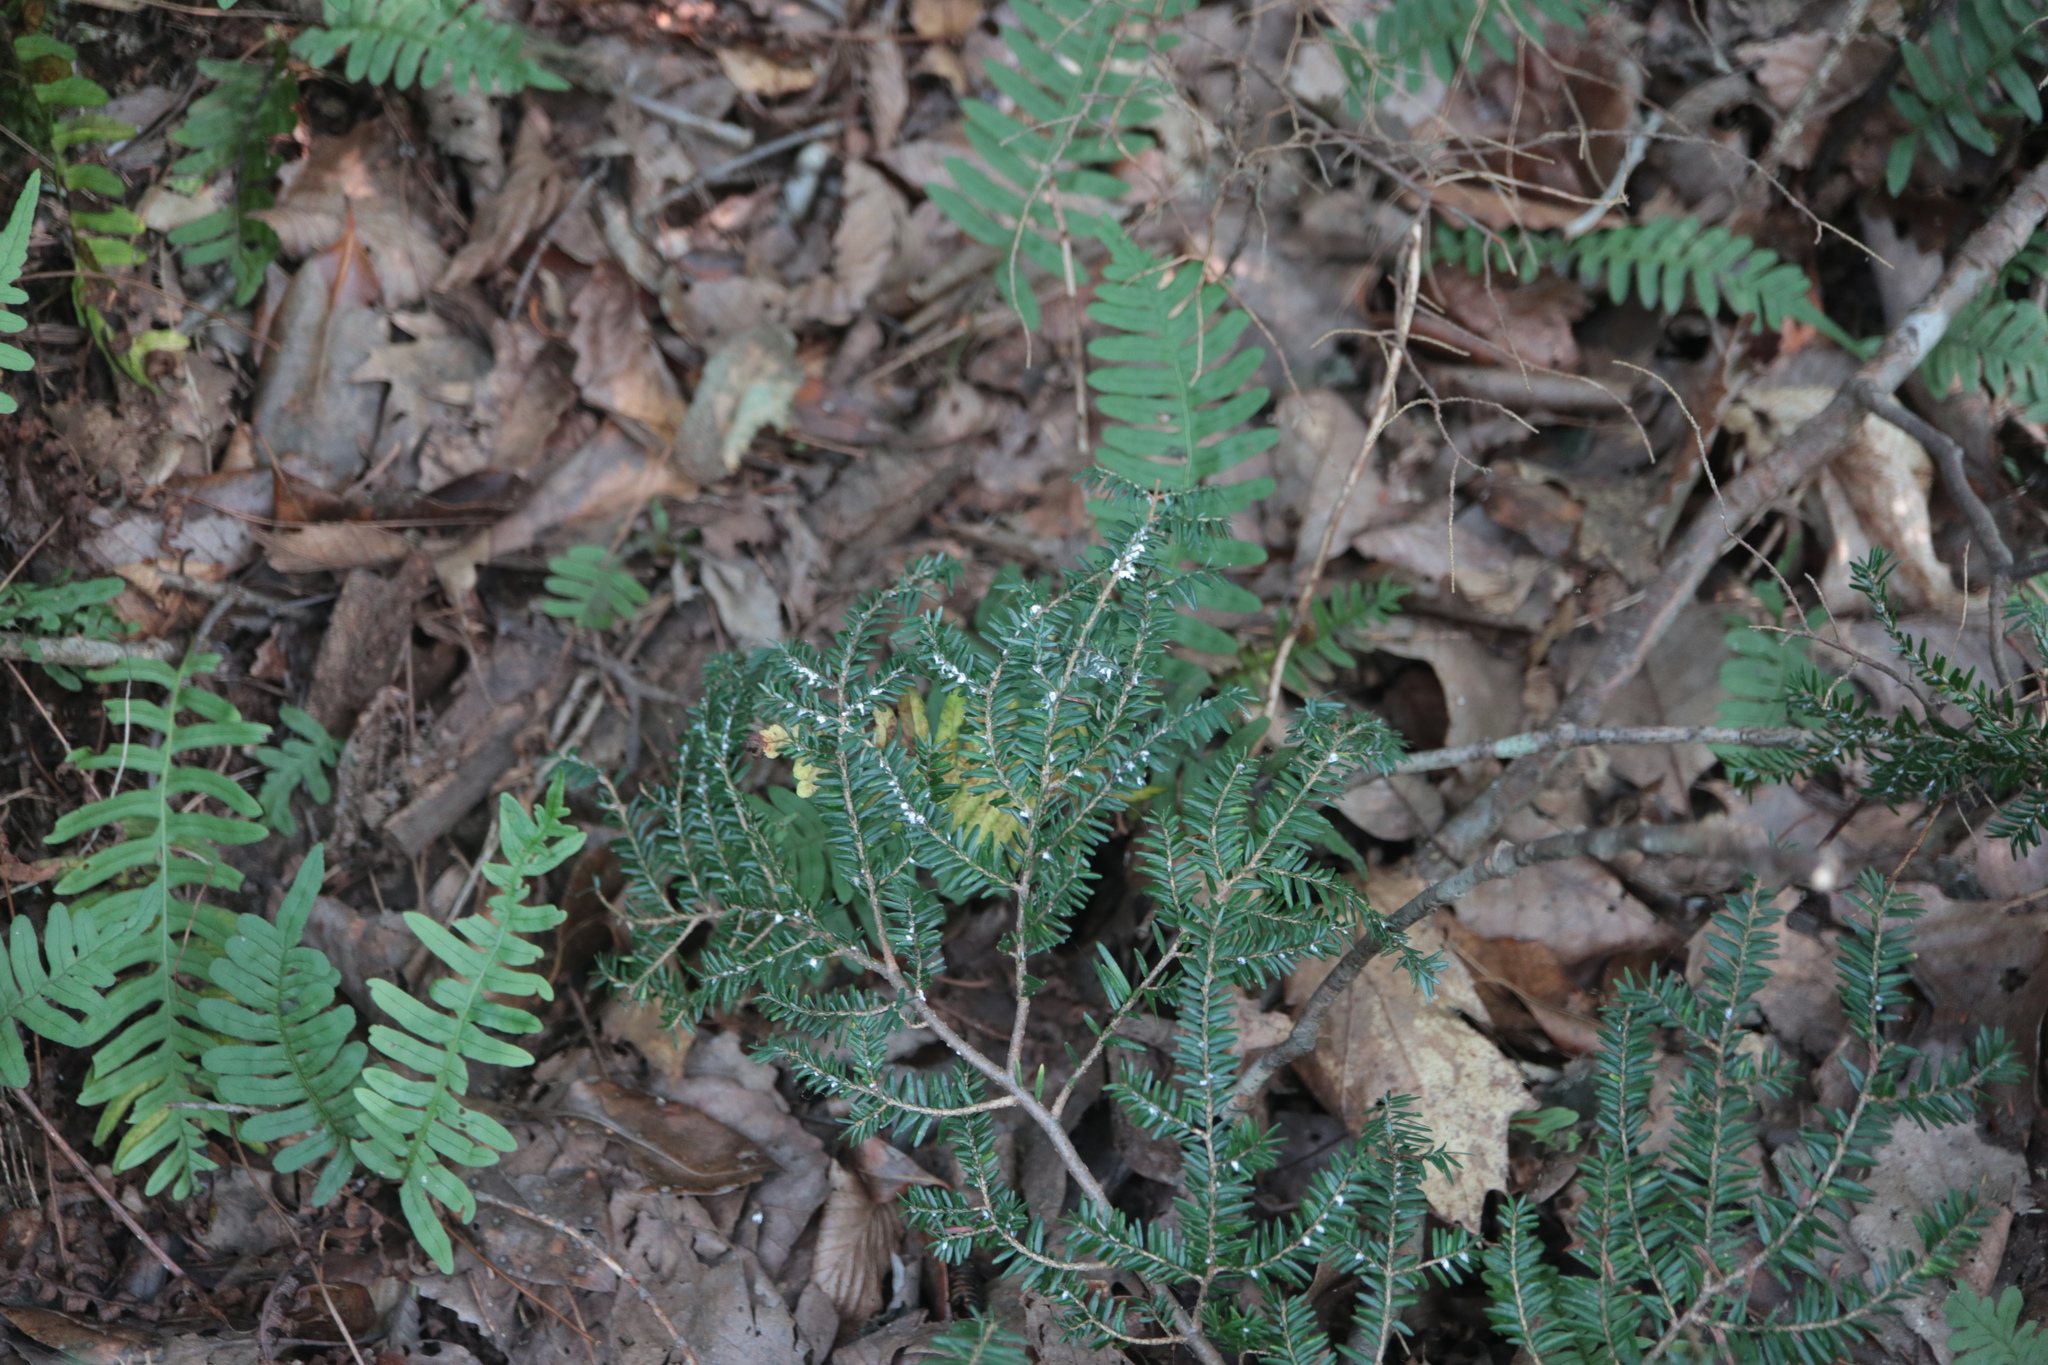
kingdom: Animalia
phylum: Arthropoda
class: Insecta
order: Hemiptera
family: Adelgidae
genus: Adelges
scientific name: Adelges tsugae
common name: Hemlock woolly adelgid
